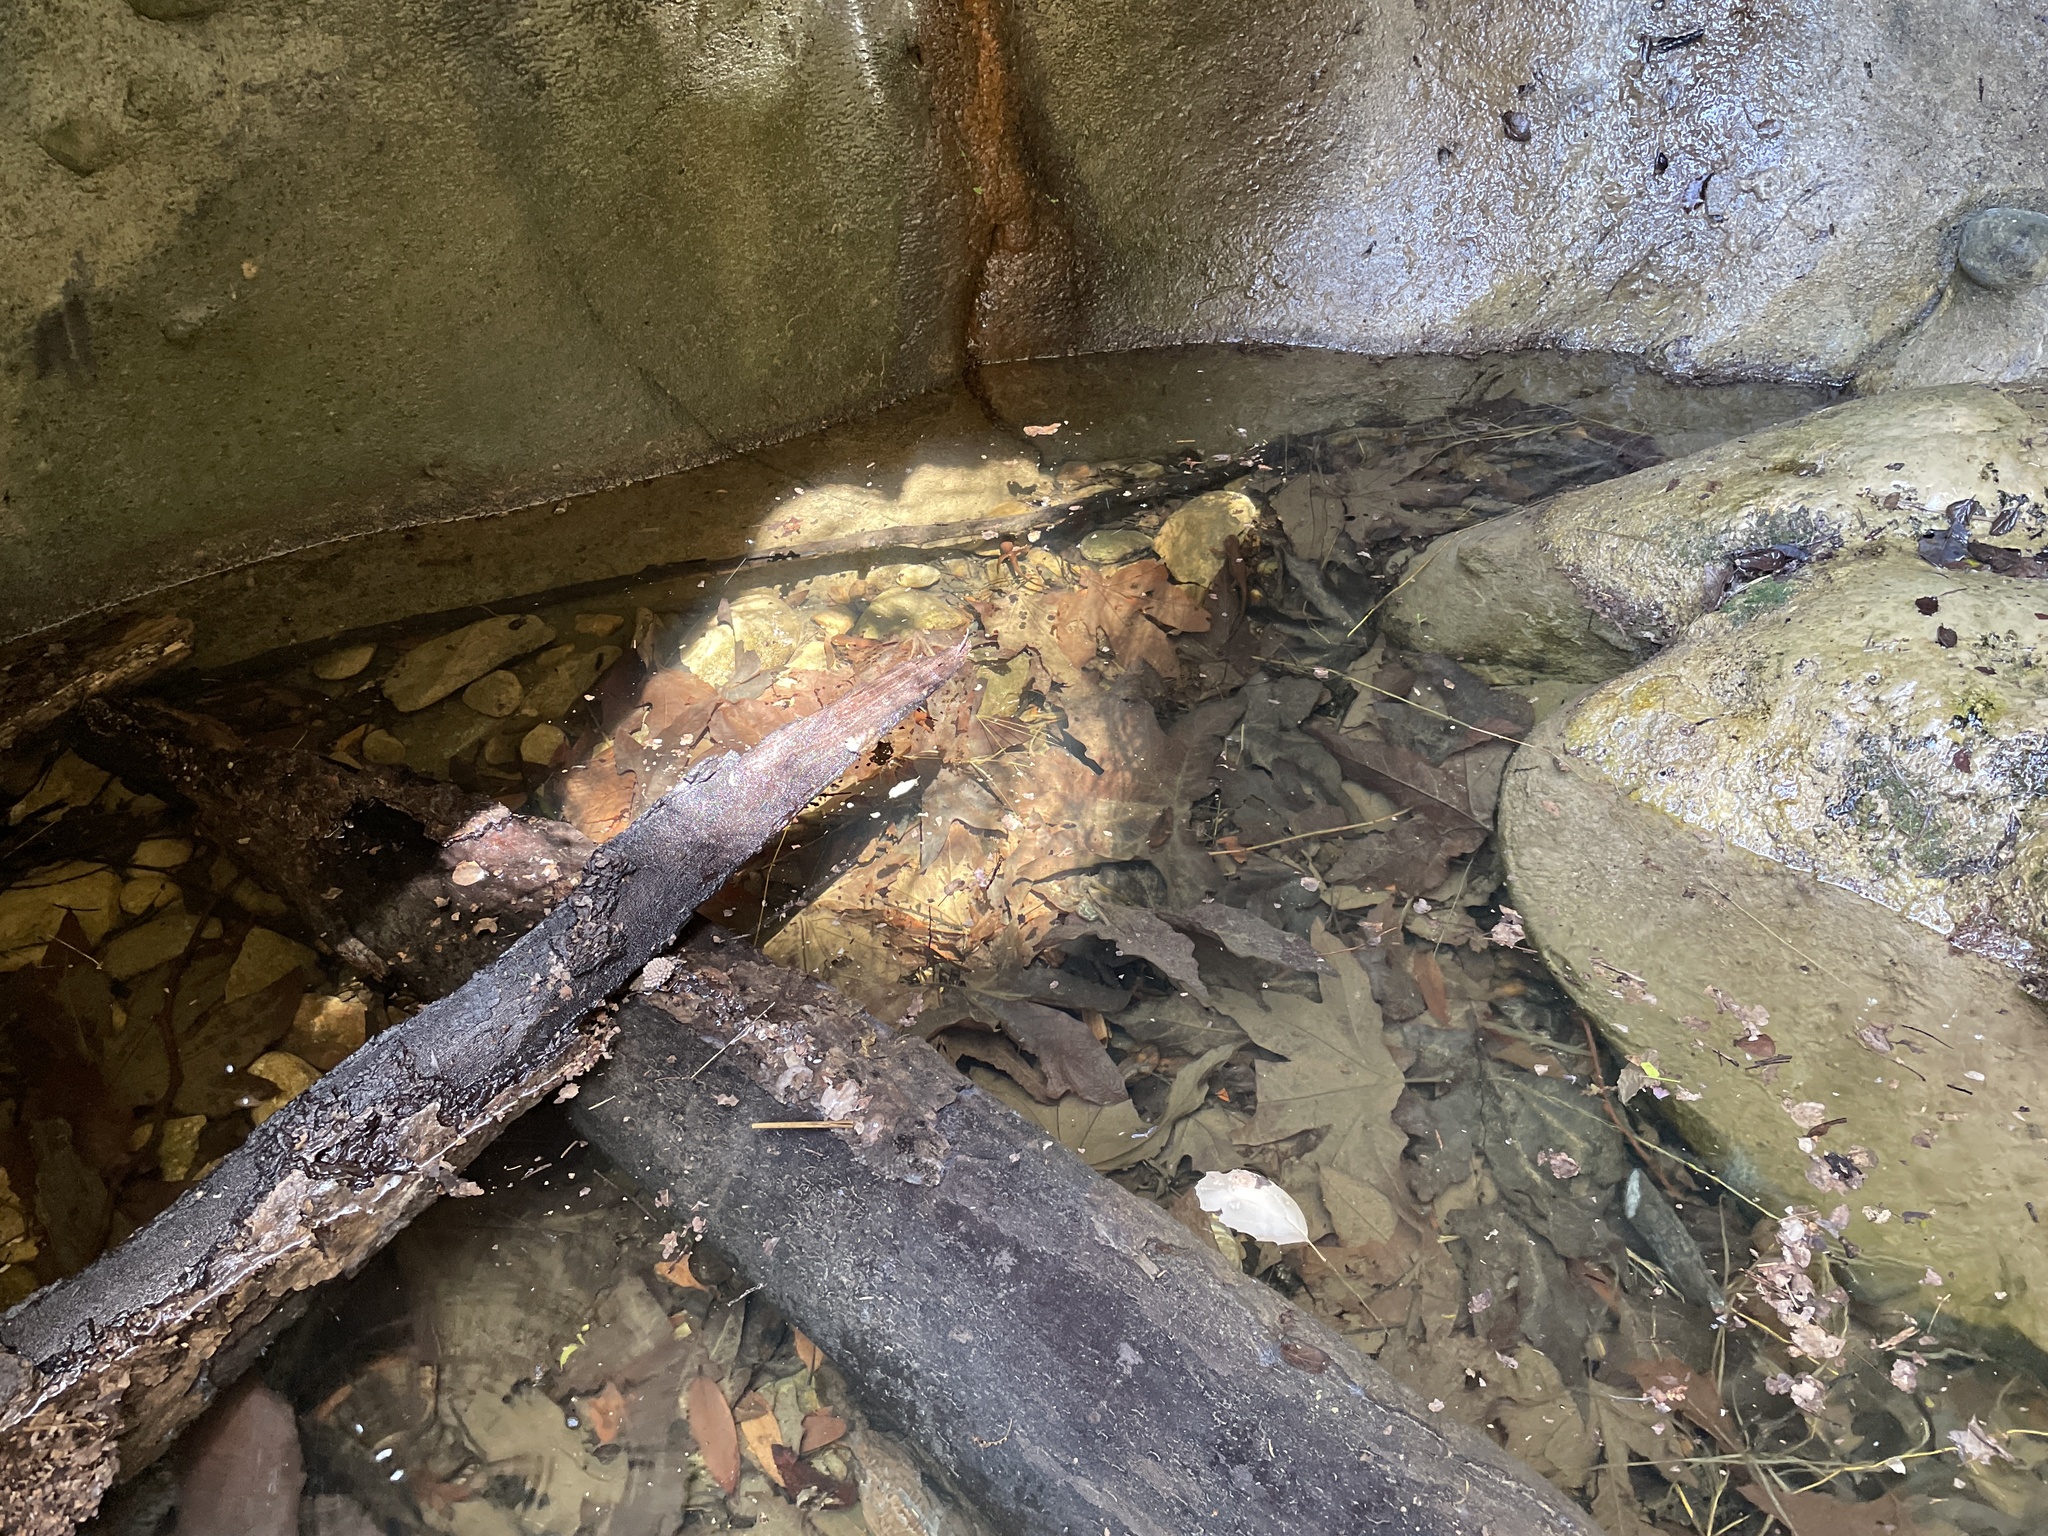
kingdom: Animalia
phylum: Chordata
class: Amphibia
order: Caudata
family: Salamandridae
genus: Taricha
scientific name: Taricha torosa
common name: California newt
